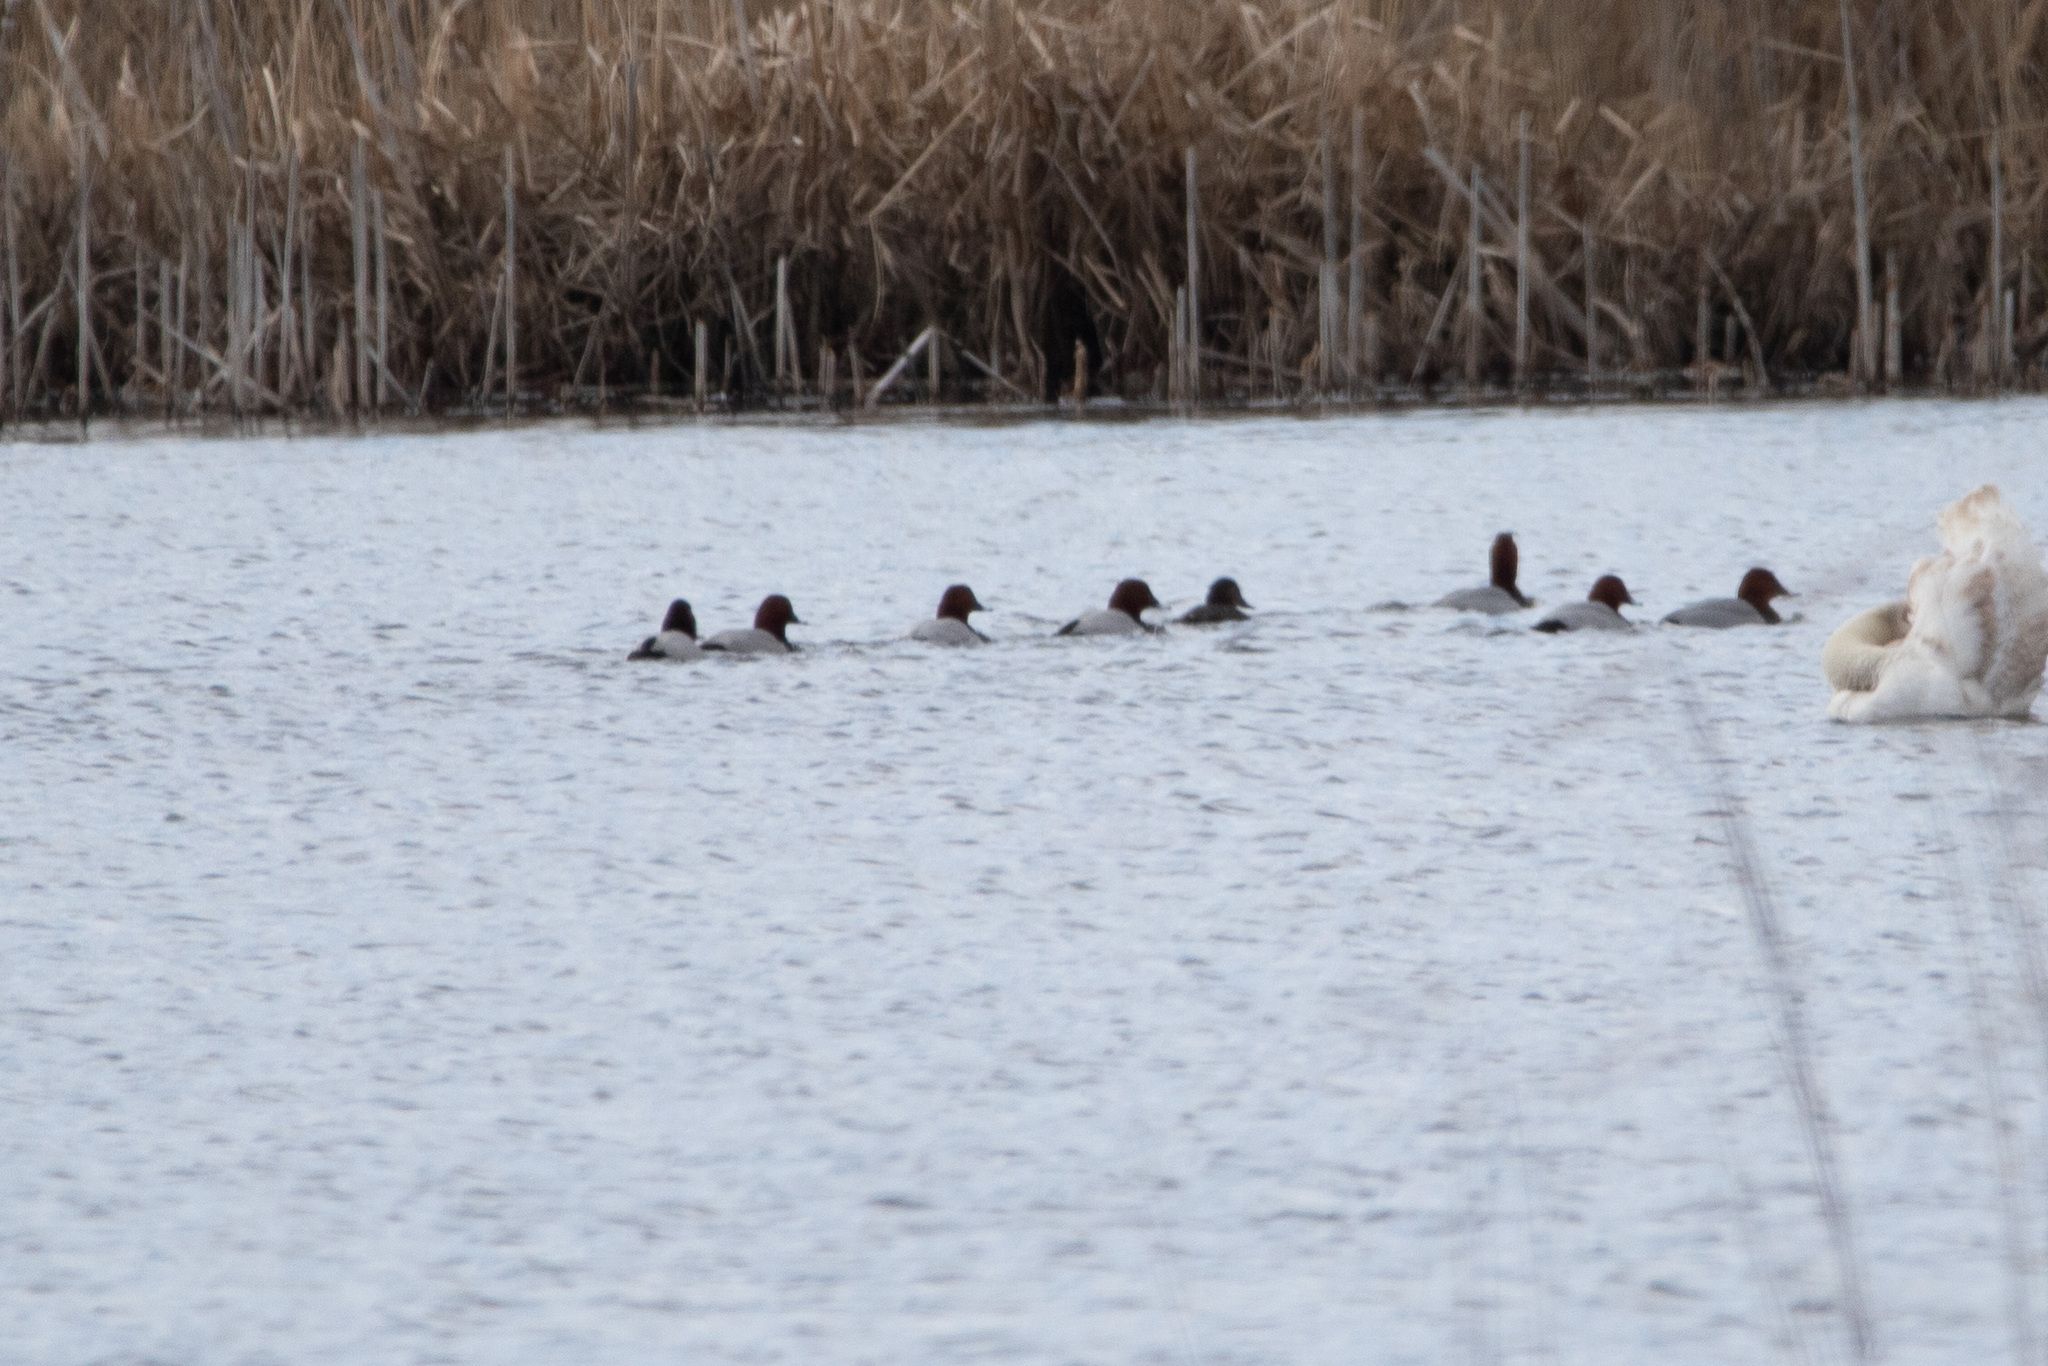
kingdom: Animalia
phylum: Chordata
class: Aves
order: Anseriformes
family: Anatidae
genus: Aythya
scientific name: Aythya ferina
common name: Common pochard
